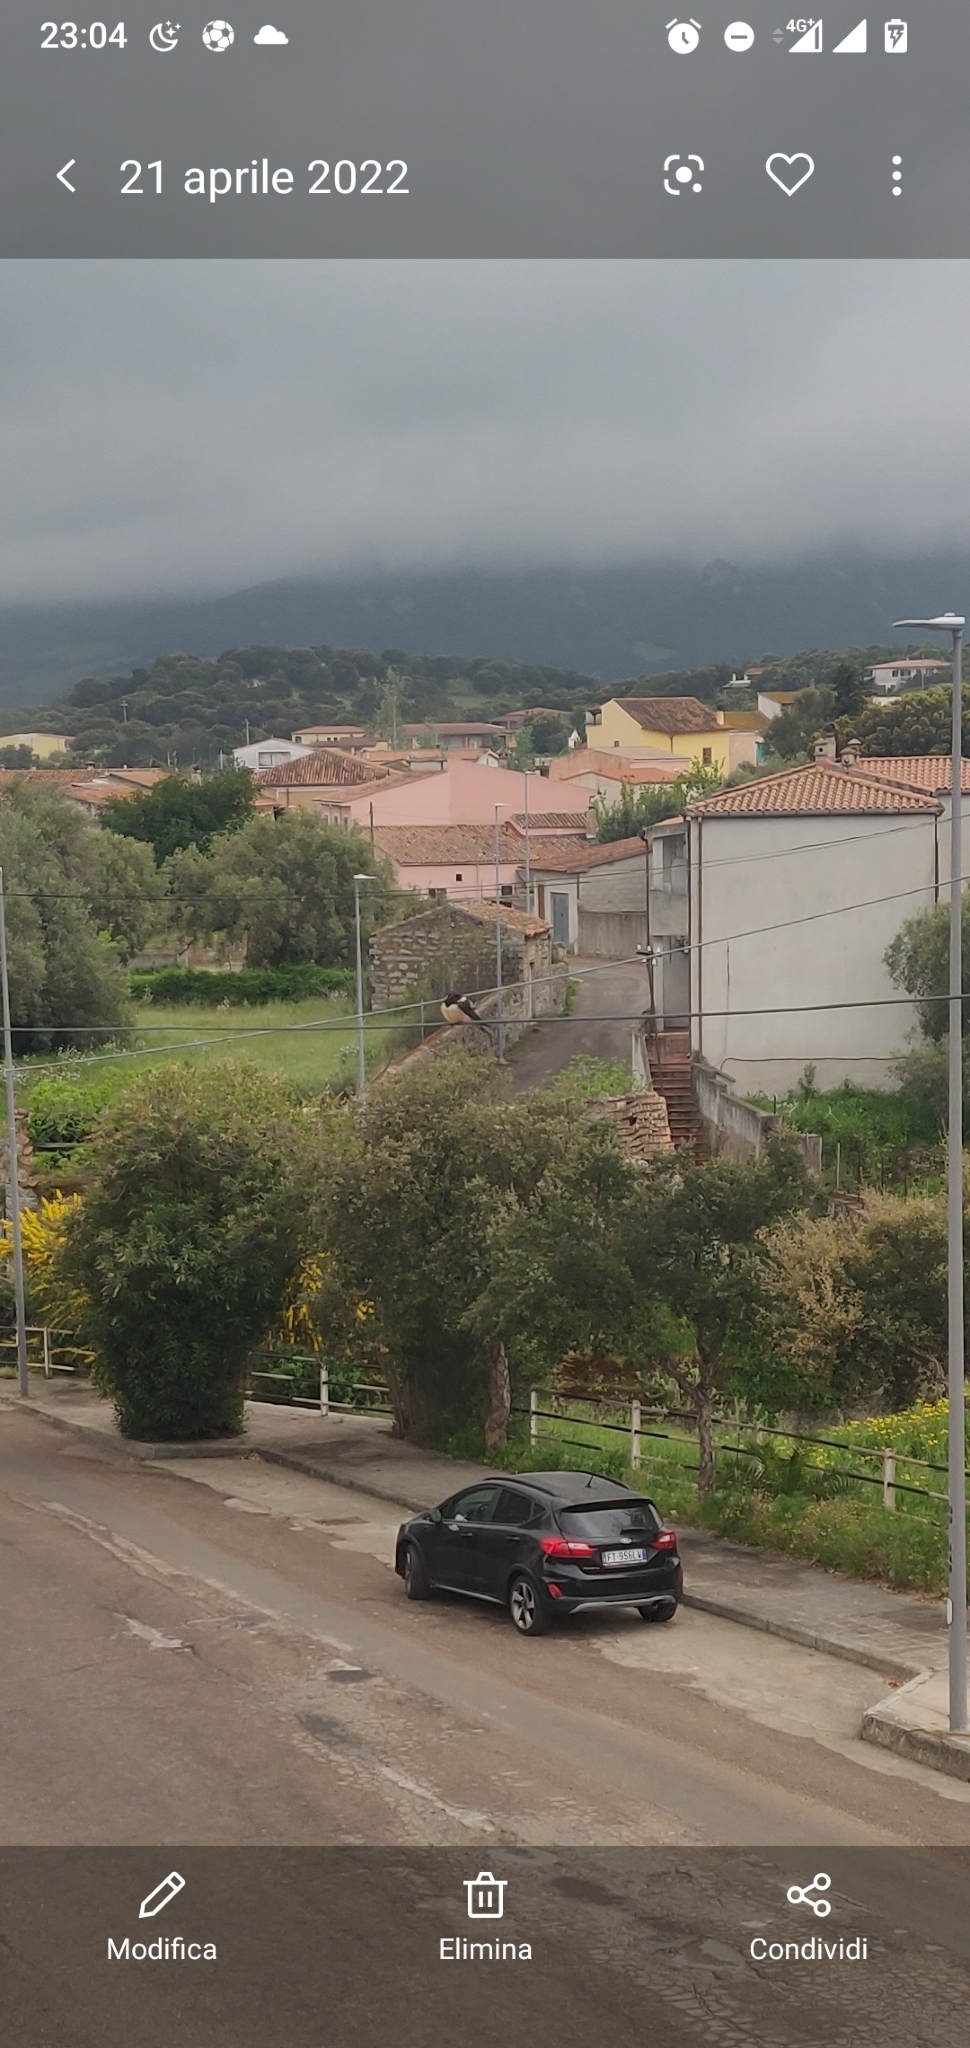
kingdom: Animalia
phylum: Chordata
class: Aves
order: Passeriformes
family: Hirundinidae
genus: Hirundo
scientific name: Hirundo rustica
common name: Barn swallow
